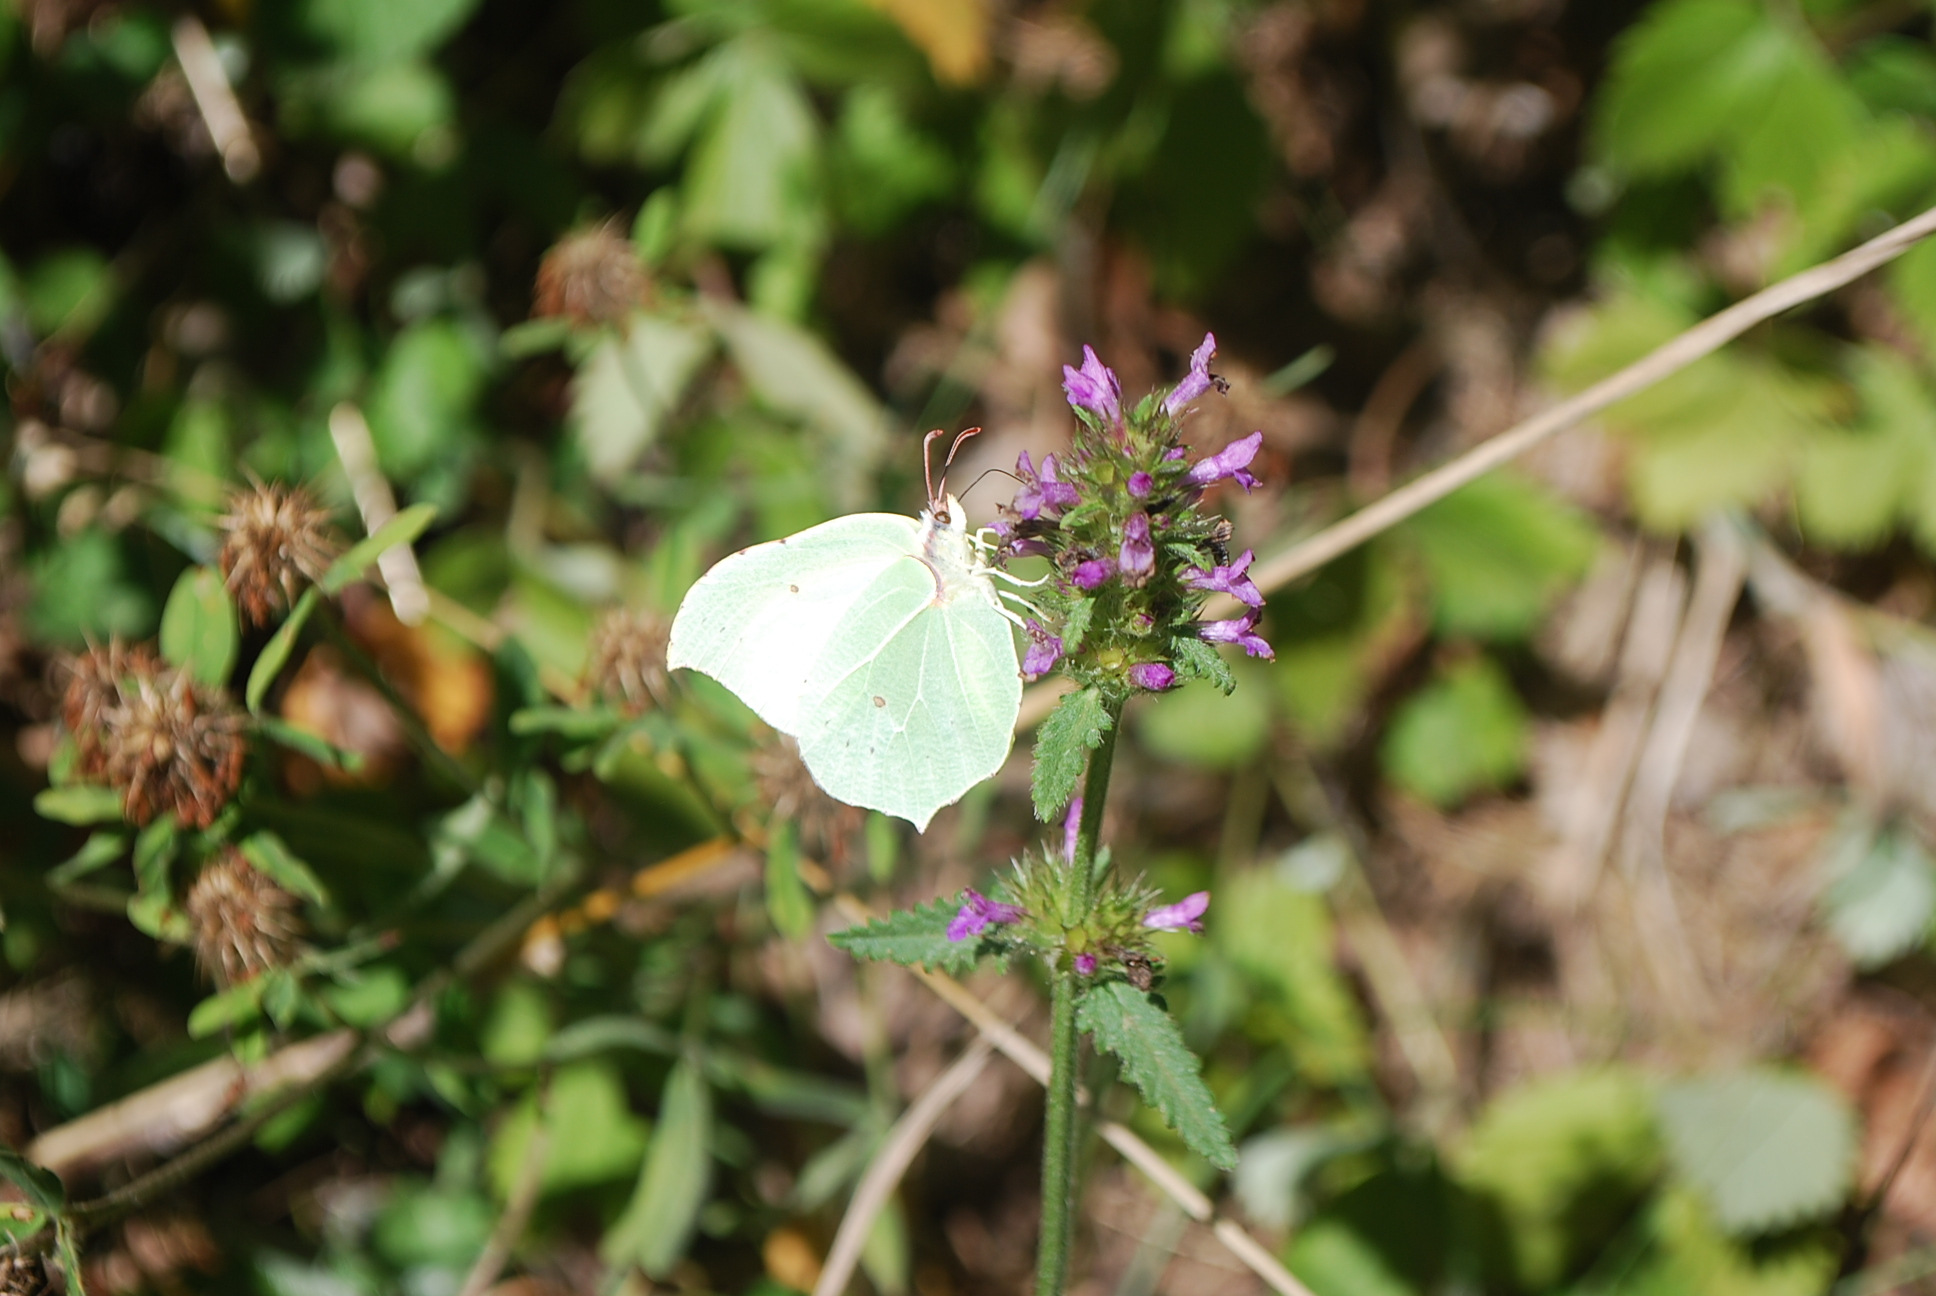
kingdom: Animalia
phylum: Arthropoda
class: Insecta
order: Lepidoptera
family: Pieridae
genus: Gonepteryx
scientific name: Gonepteryx rhamni
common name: Brimstone
